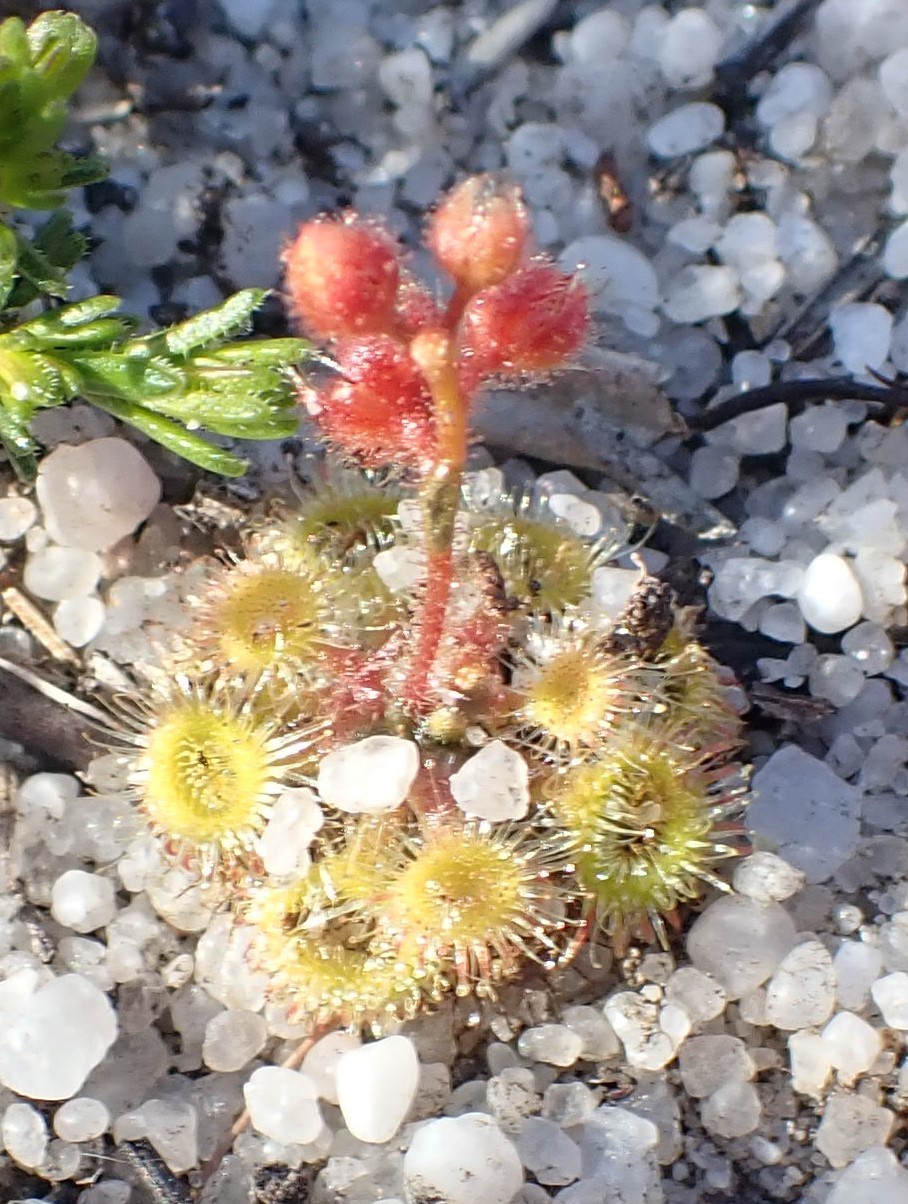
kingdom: Plantae
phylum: Tracheophyta
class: Magnoliopsida
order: Caryophyllales
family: Droseraceae
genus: Drosera
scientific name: Drosera glanduligera
